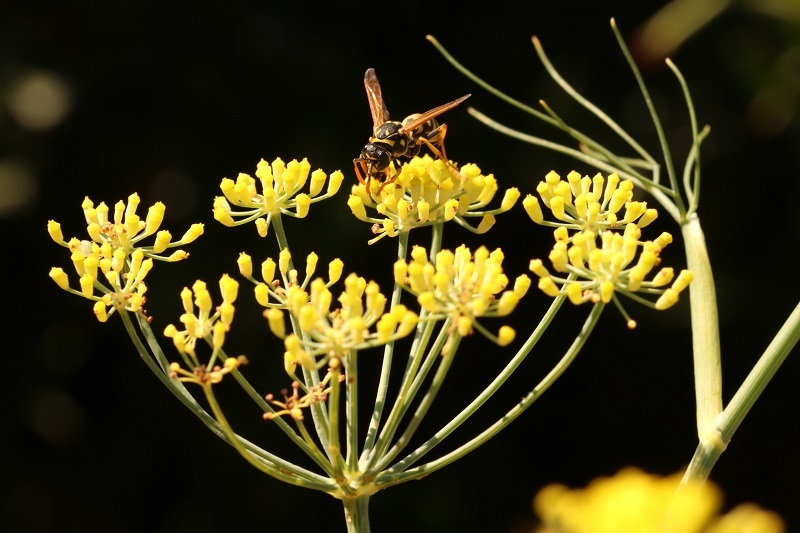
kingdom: Animalia
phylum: Arthropoda
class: Insecta
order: Hymenoptera
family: Eumenidae
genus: Polistes
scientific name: Polistes dominula
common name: Paper wasp
